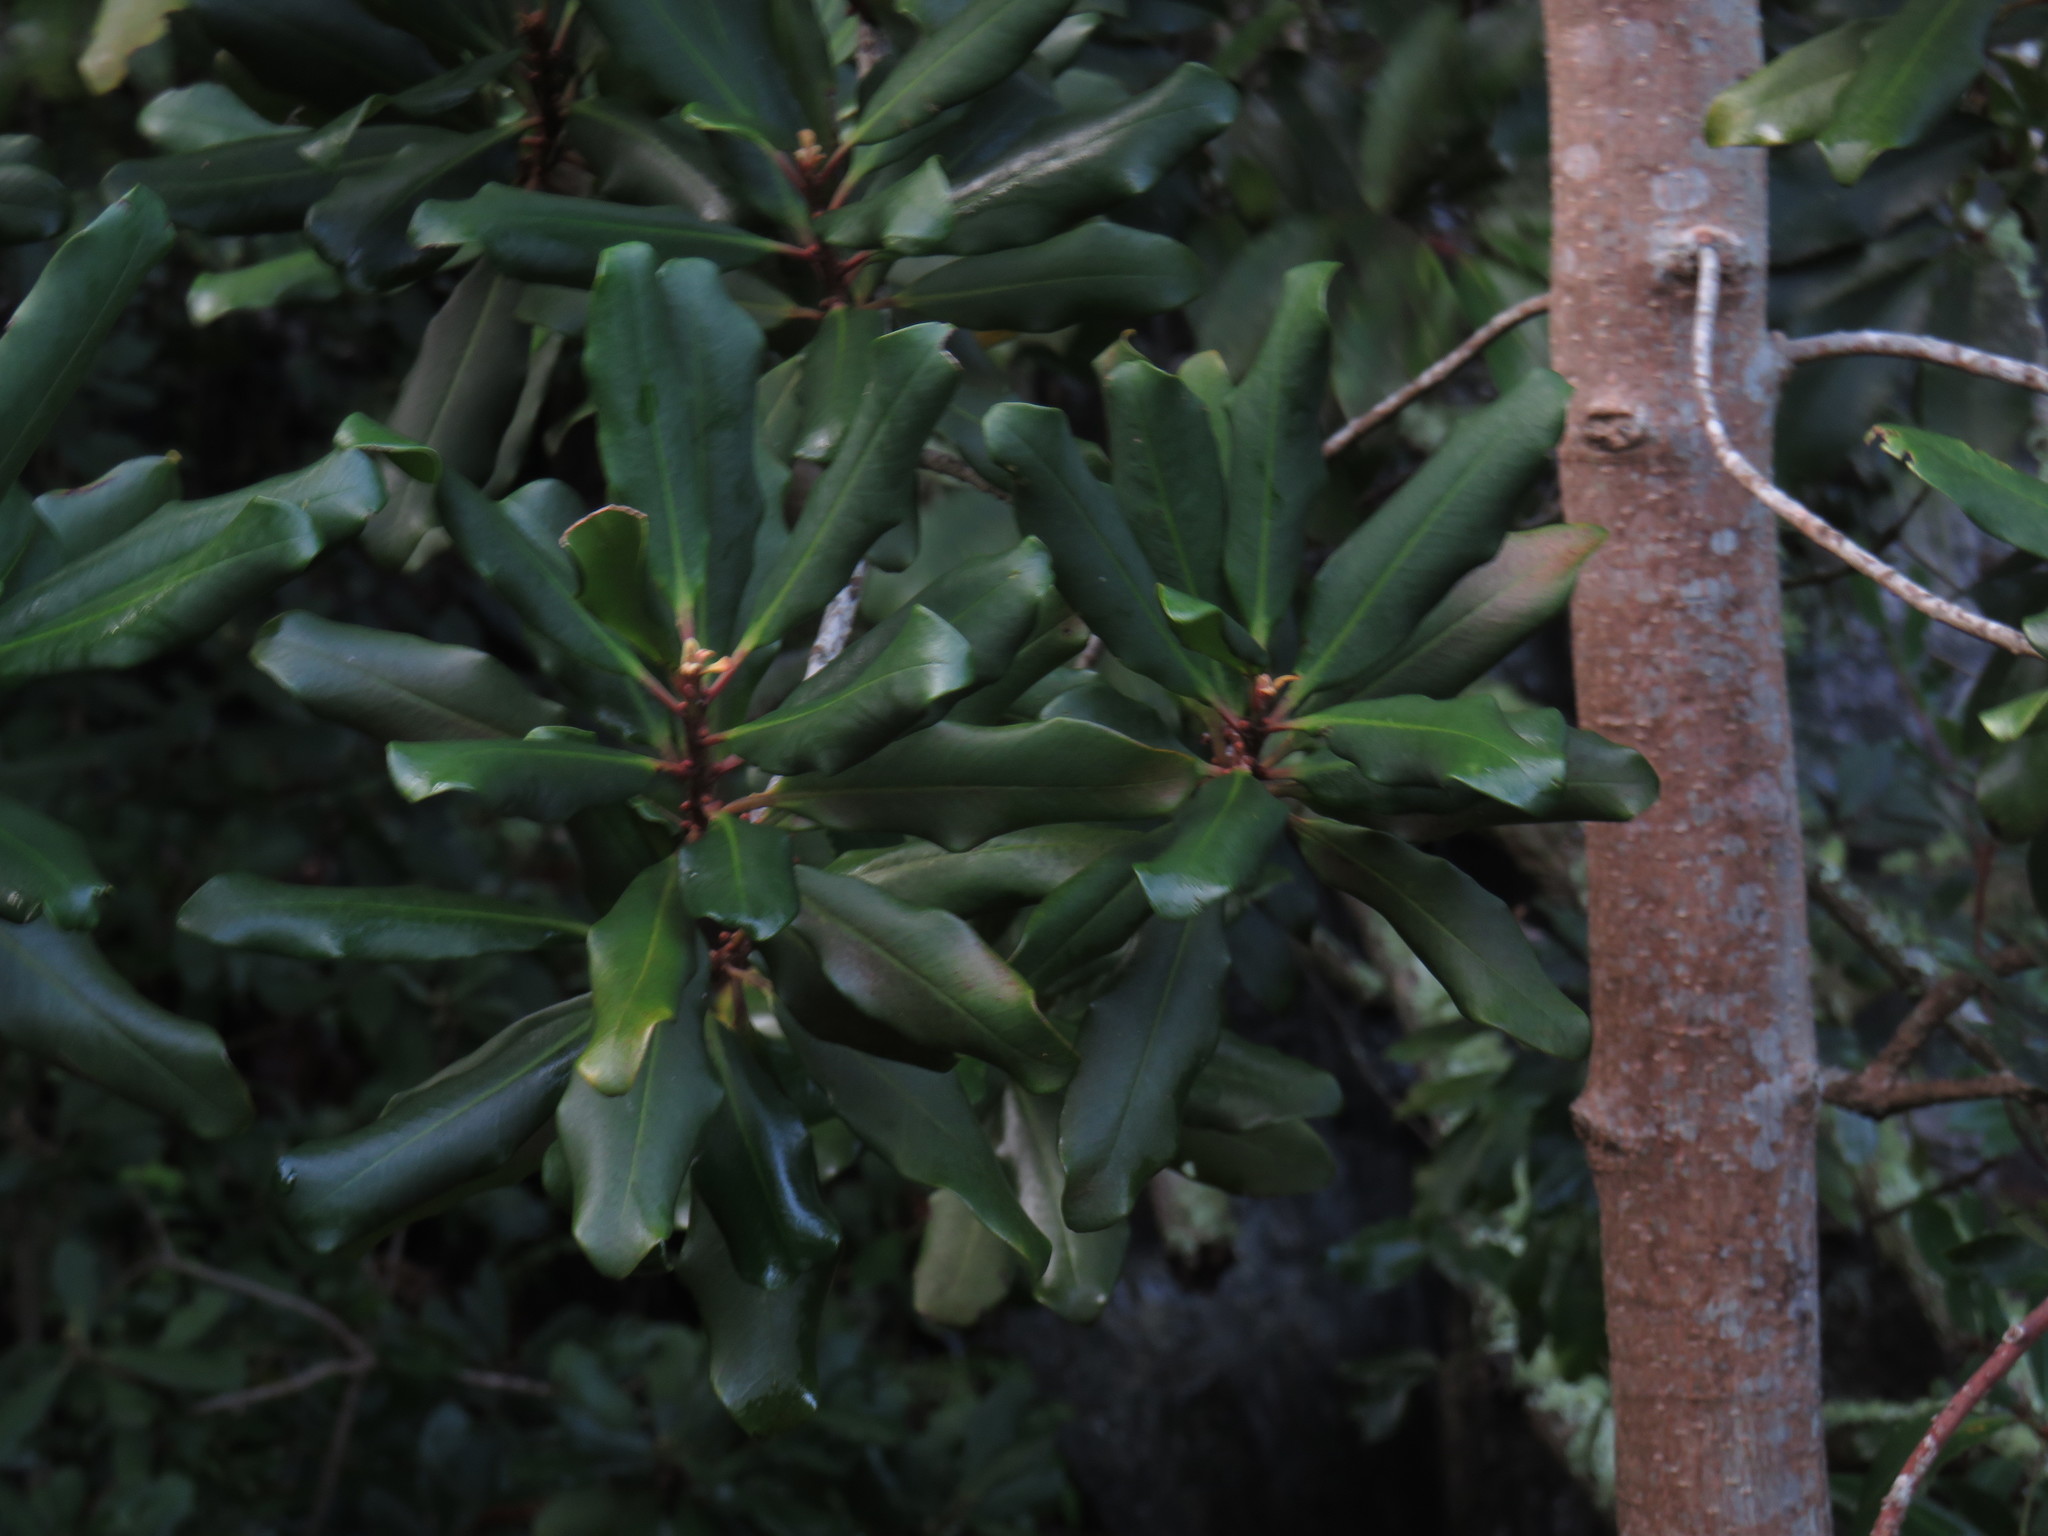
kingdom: Plantae
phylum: Tracheophyta
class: Magnoliopsida
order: Ericales
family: Primulaceae
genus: Myrsine
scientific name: Myrsine melanophloeos
